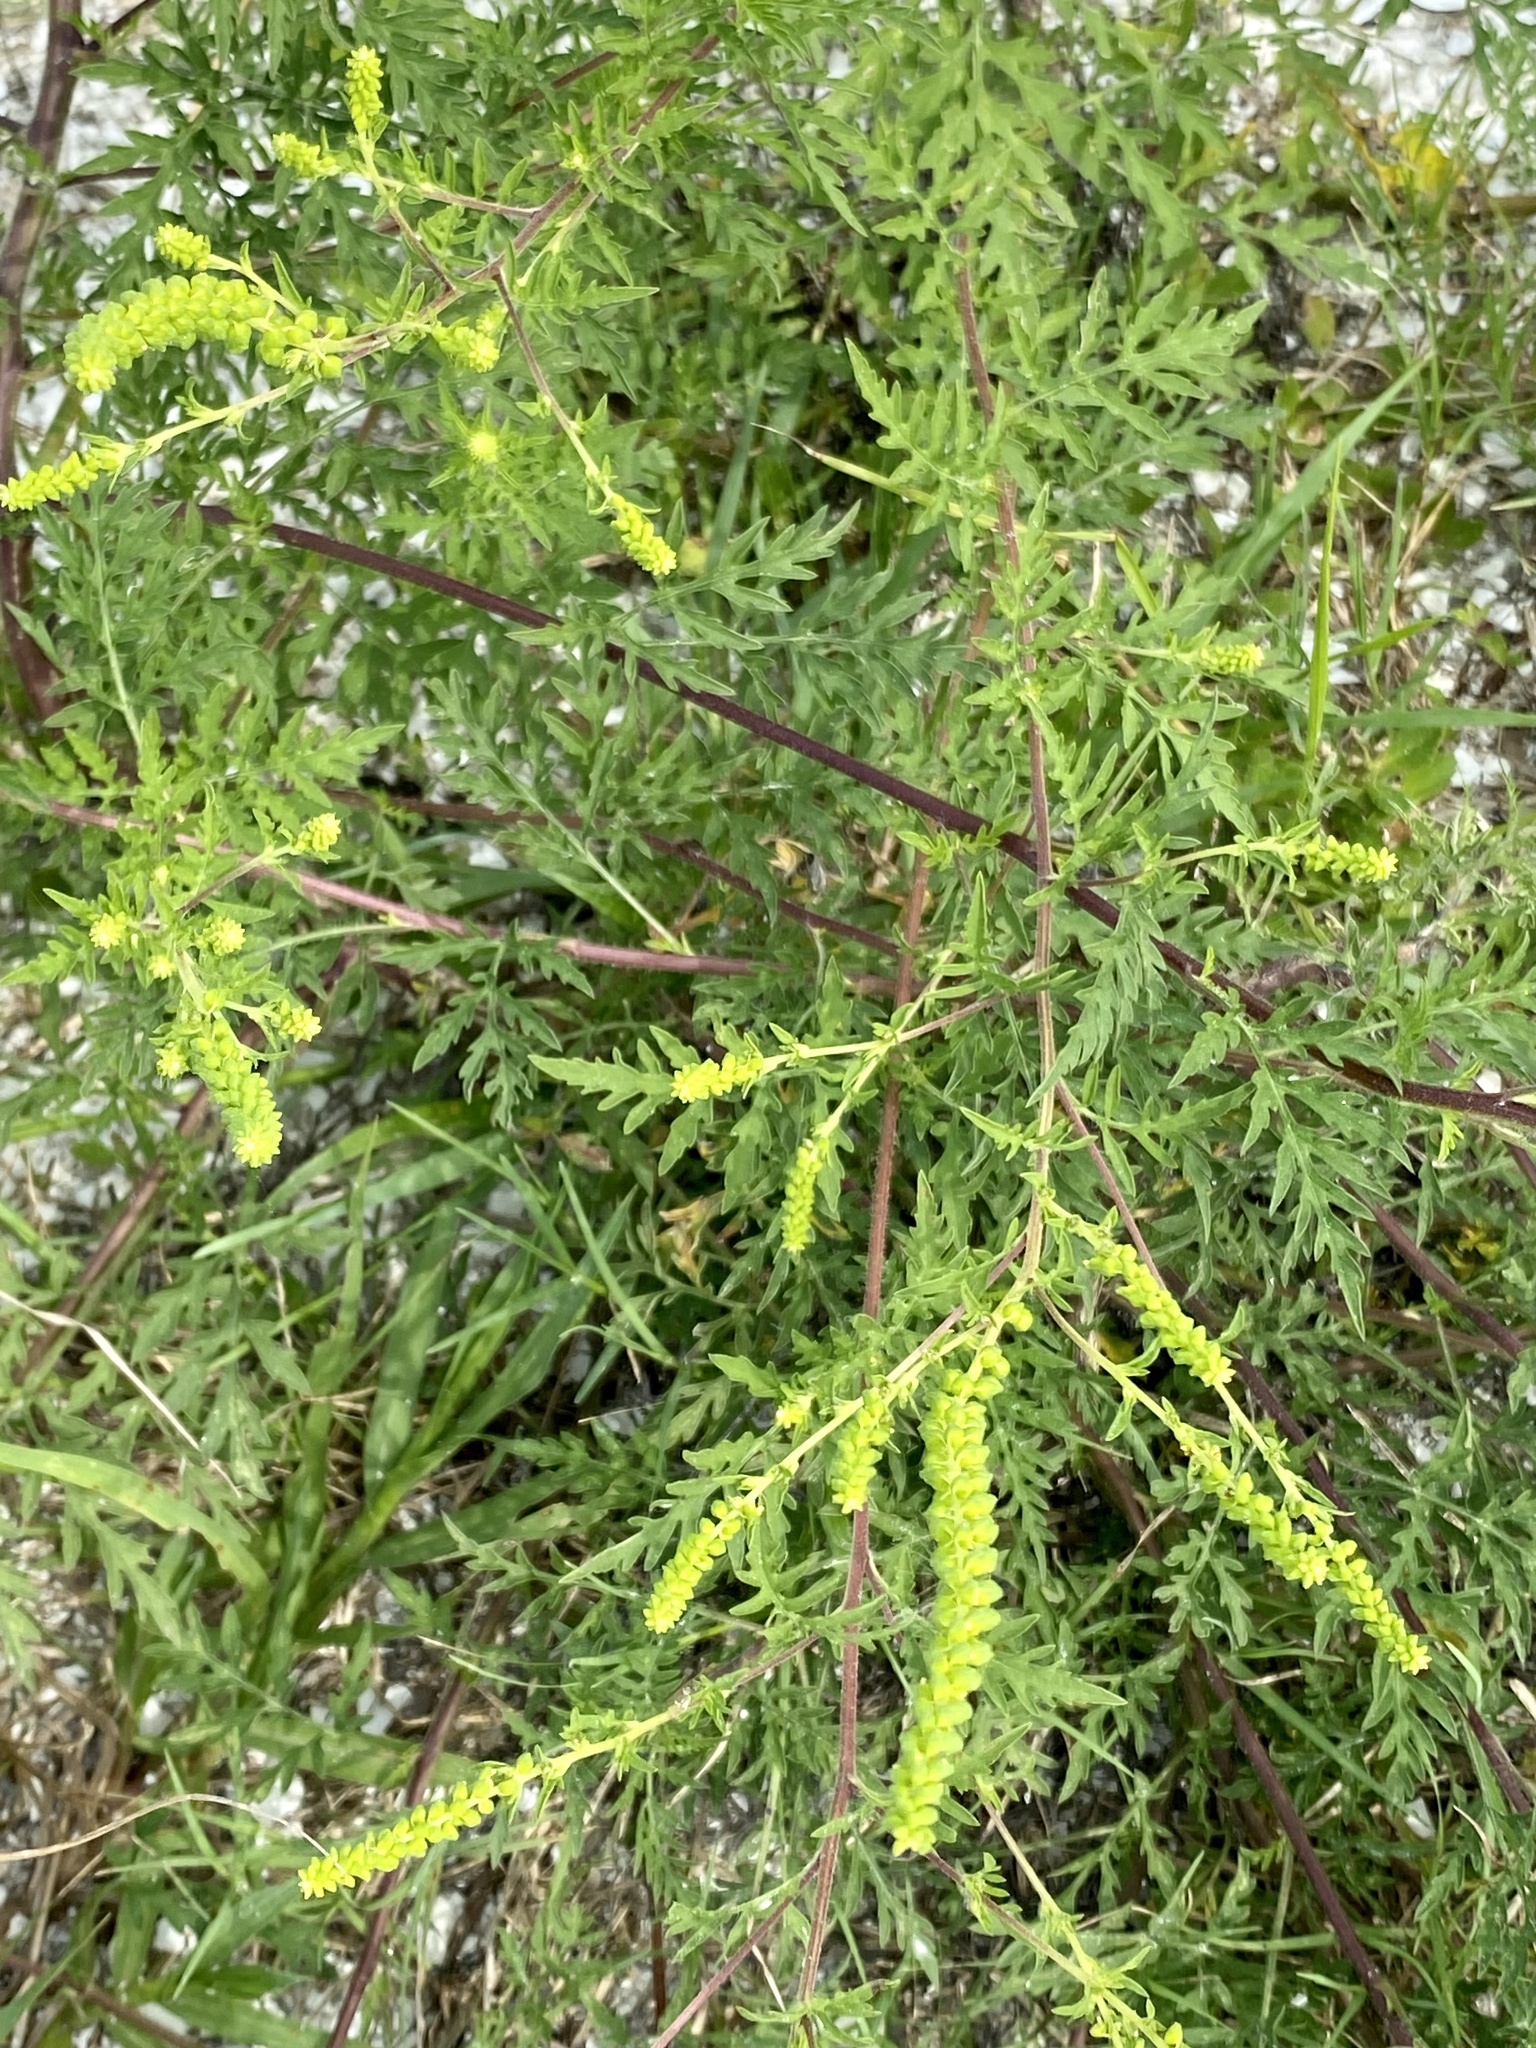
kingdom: Plantae
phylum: Tracheophyta
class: Magnoliopsida
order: Asterales
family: Asteraceae
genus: Ambrosia
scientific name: Ambrosia artemisiifolia
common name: Annual ragweed
